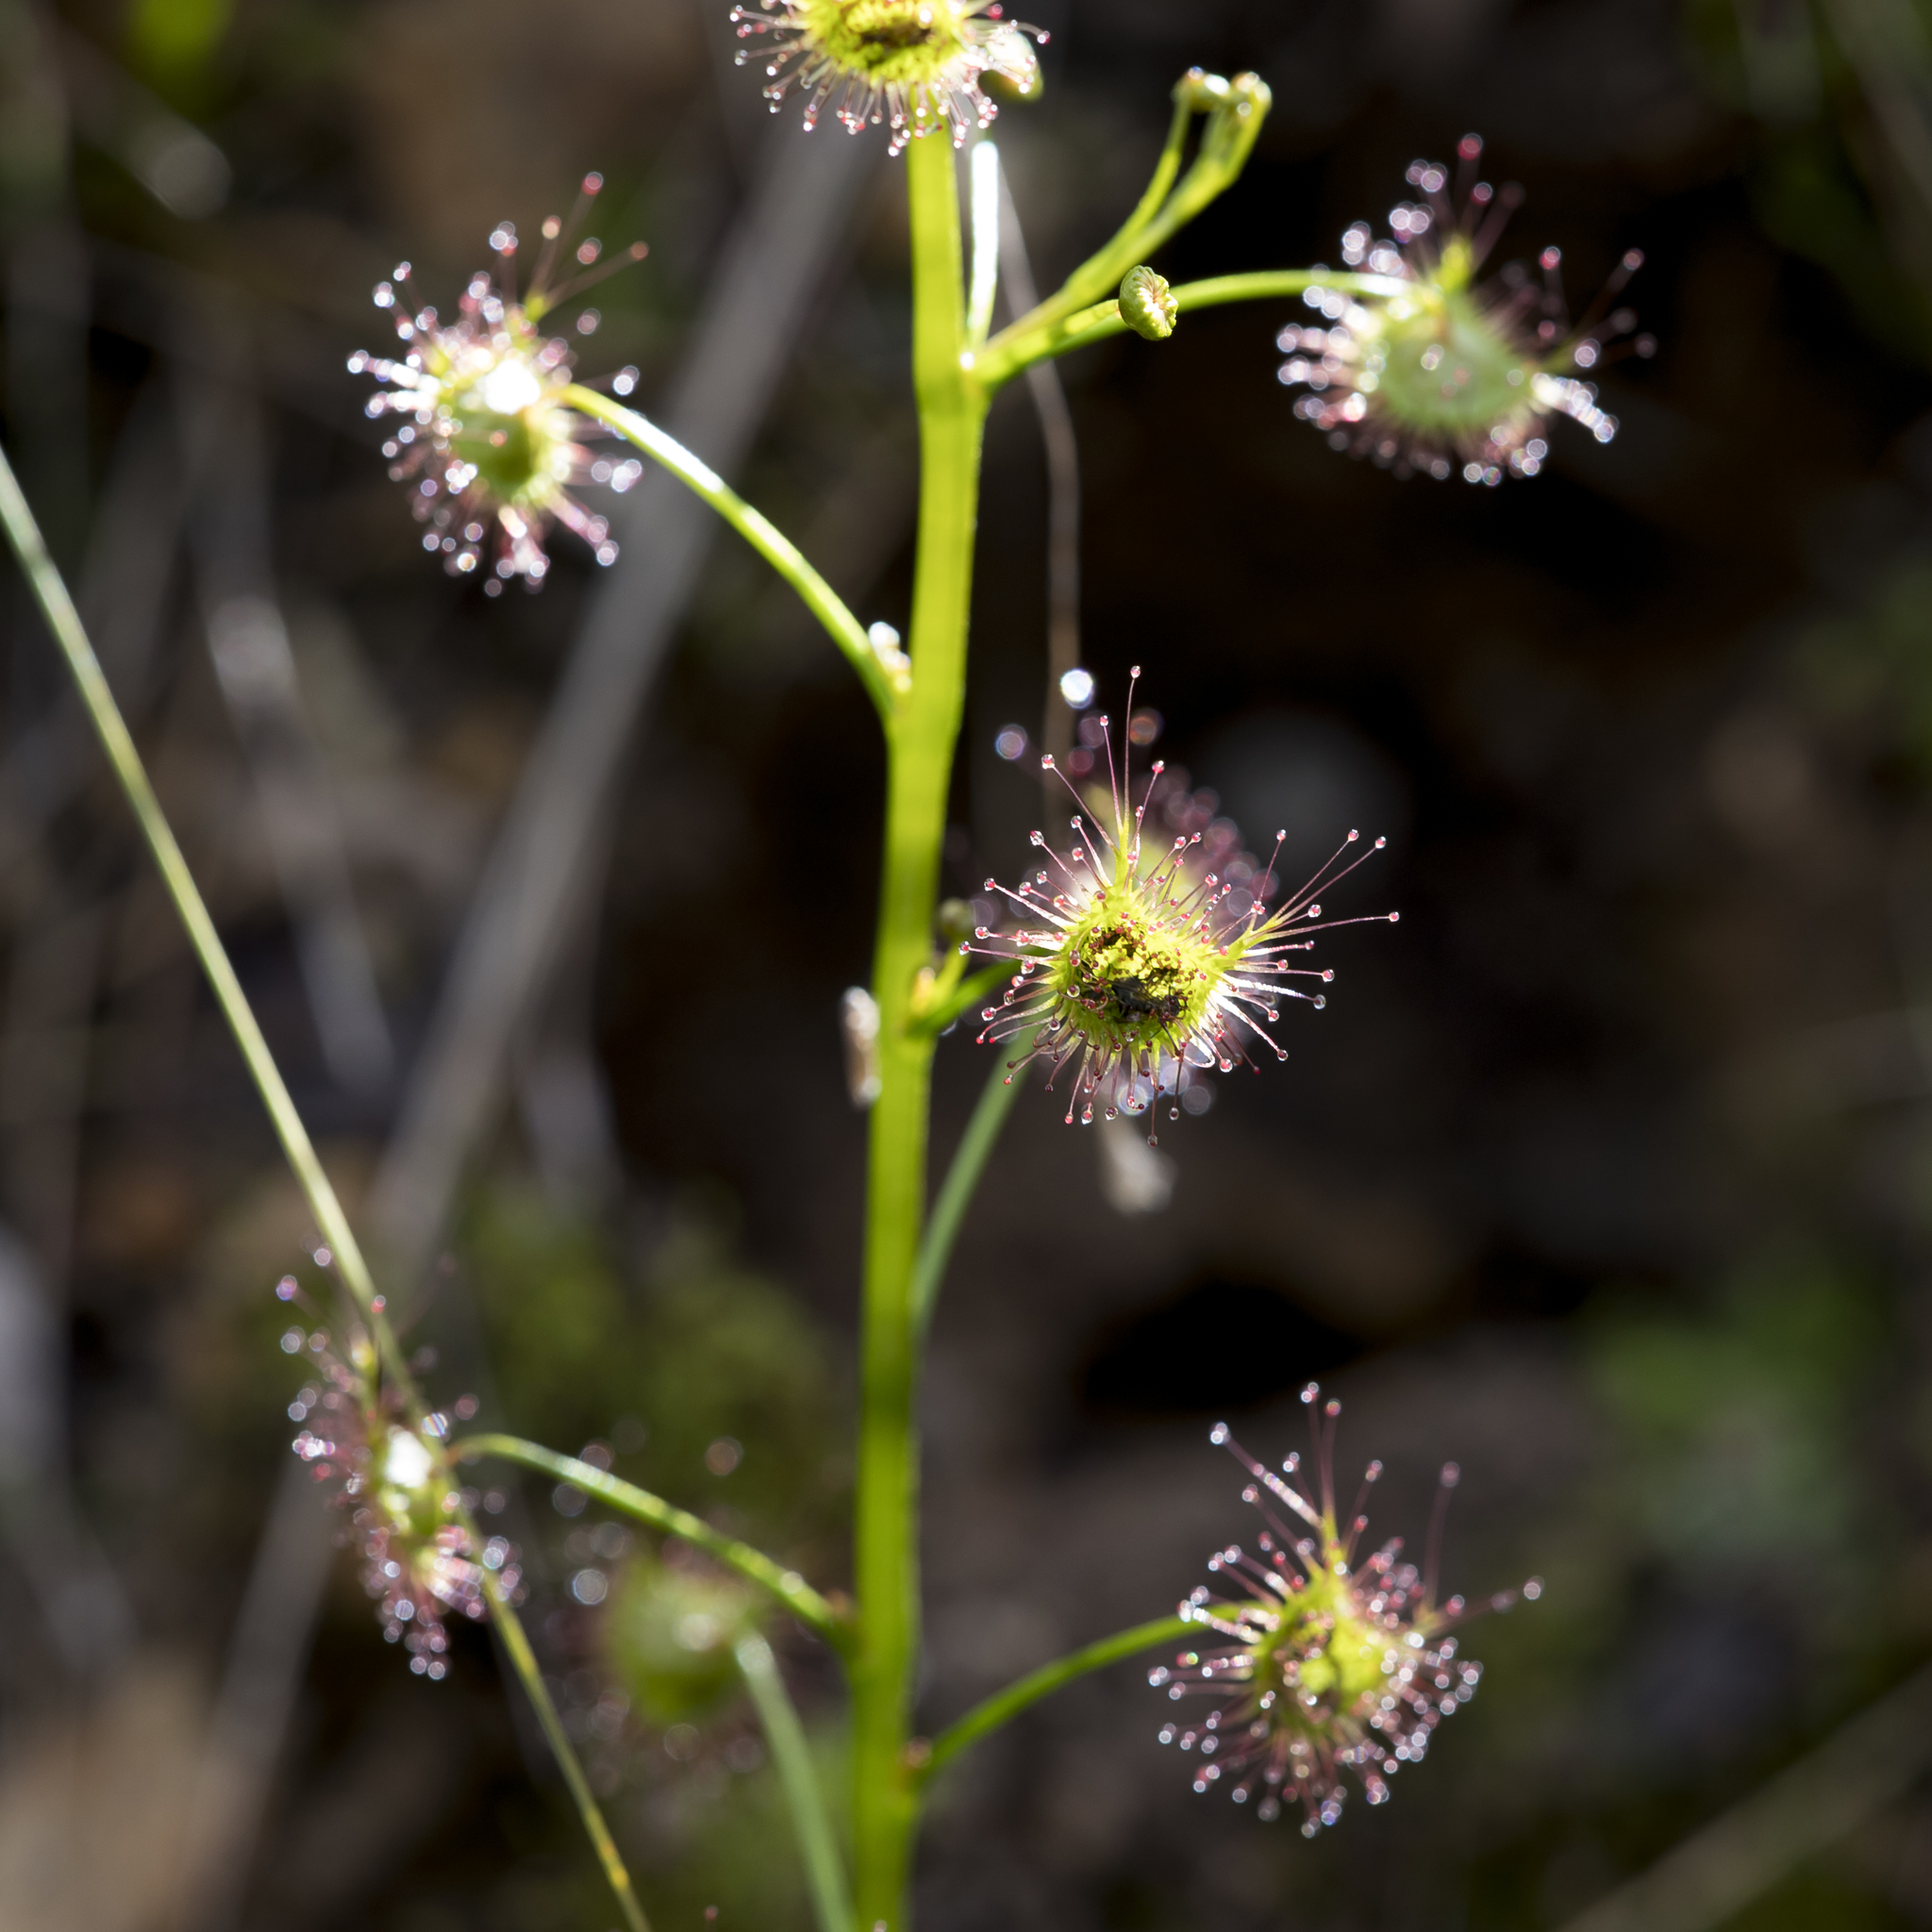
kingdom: Plantae
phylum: Tracheophyta
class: Magnoliopsida
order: Caryophyllales
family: Droseraceae
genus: Drosera
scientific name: Drosera peltata
